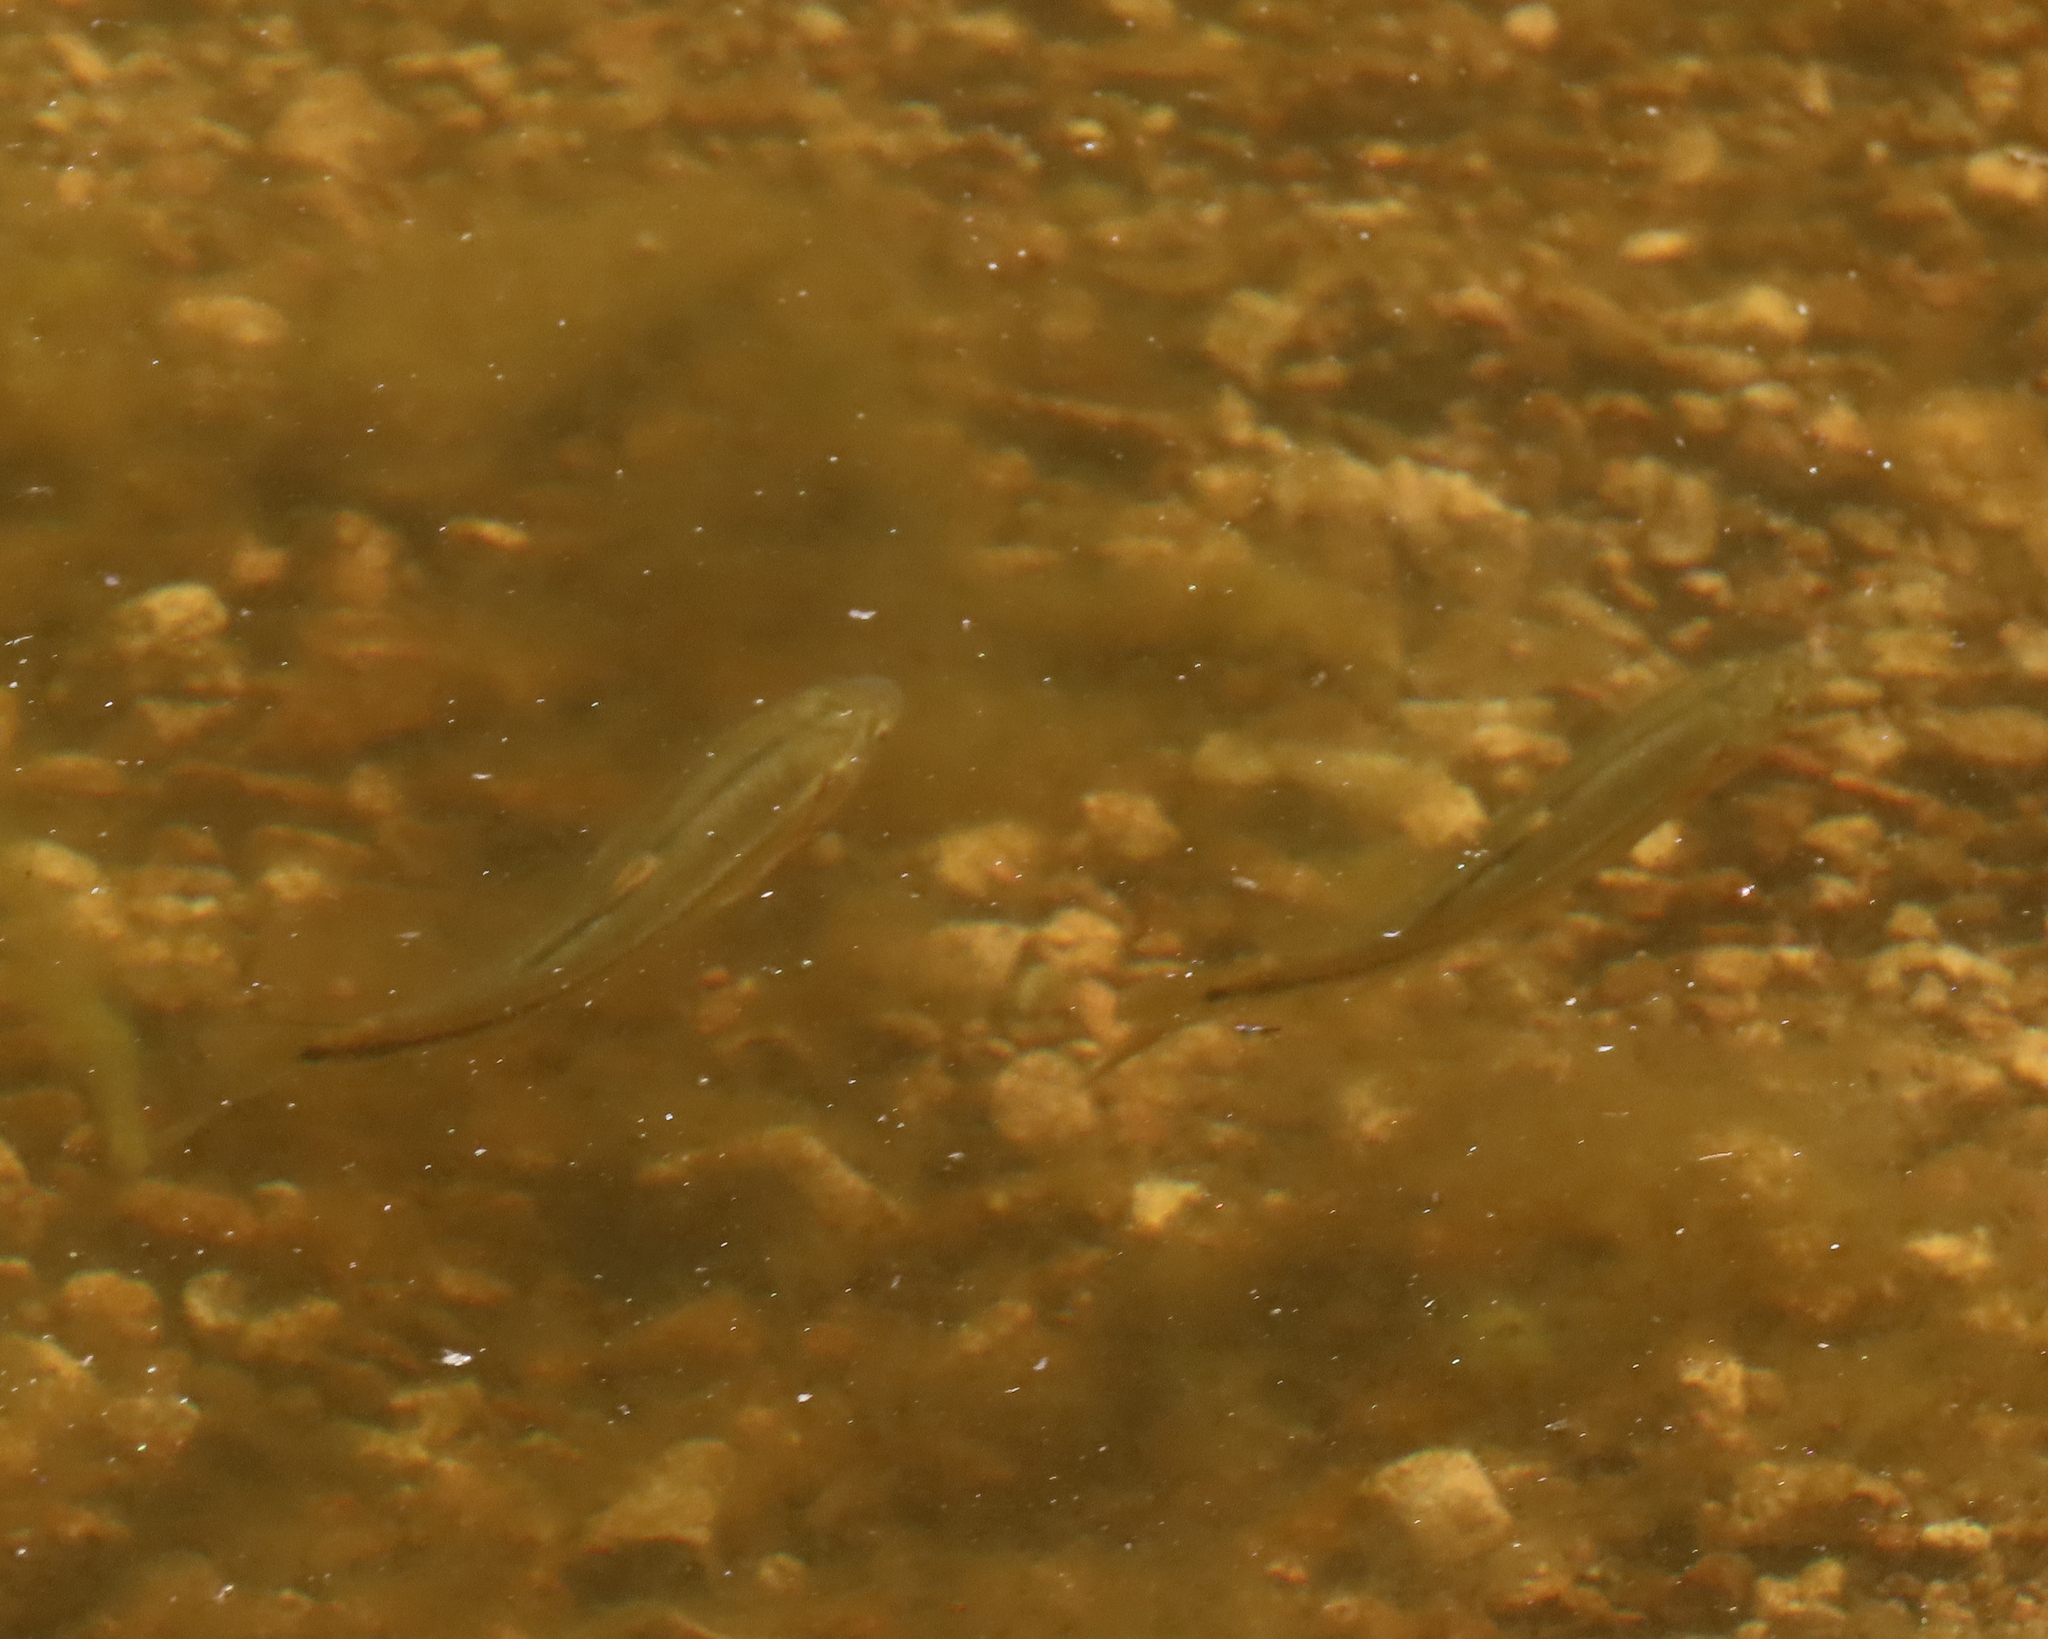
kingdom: Animalia
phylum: Chordata
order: Cypriniformes
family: Cyprinidae
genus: Gila
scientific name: Gila ditaenia
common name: Sonora chub
